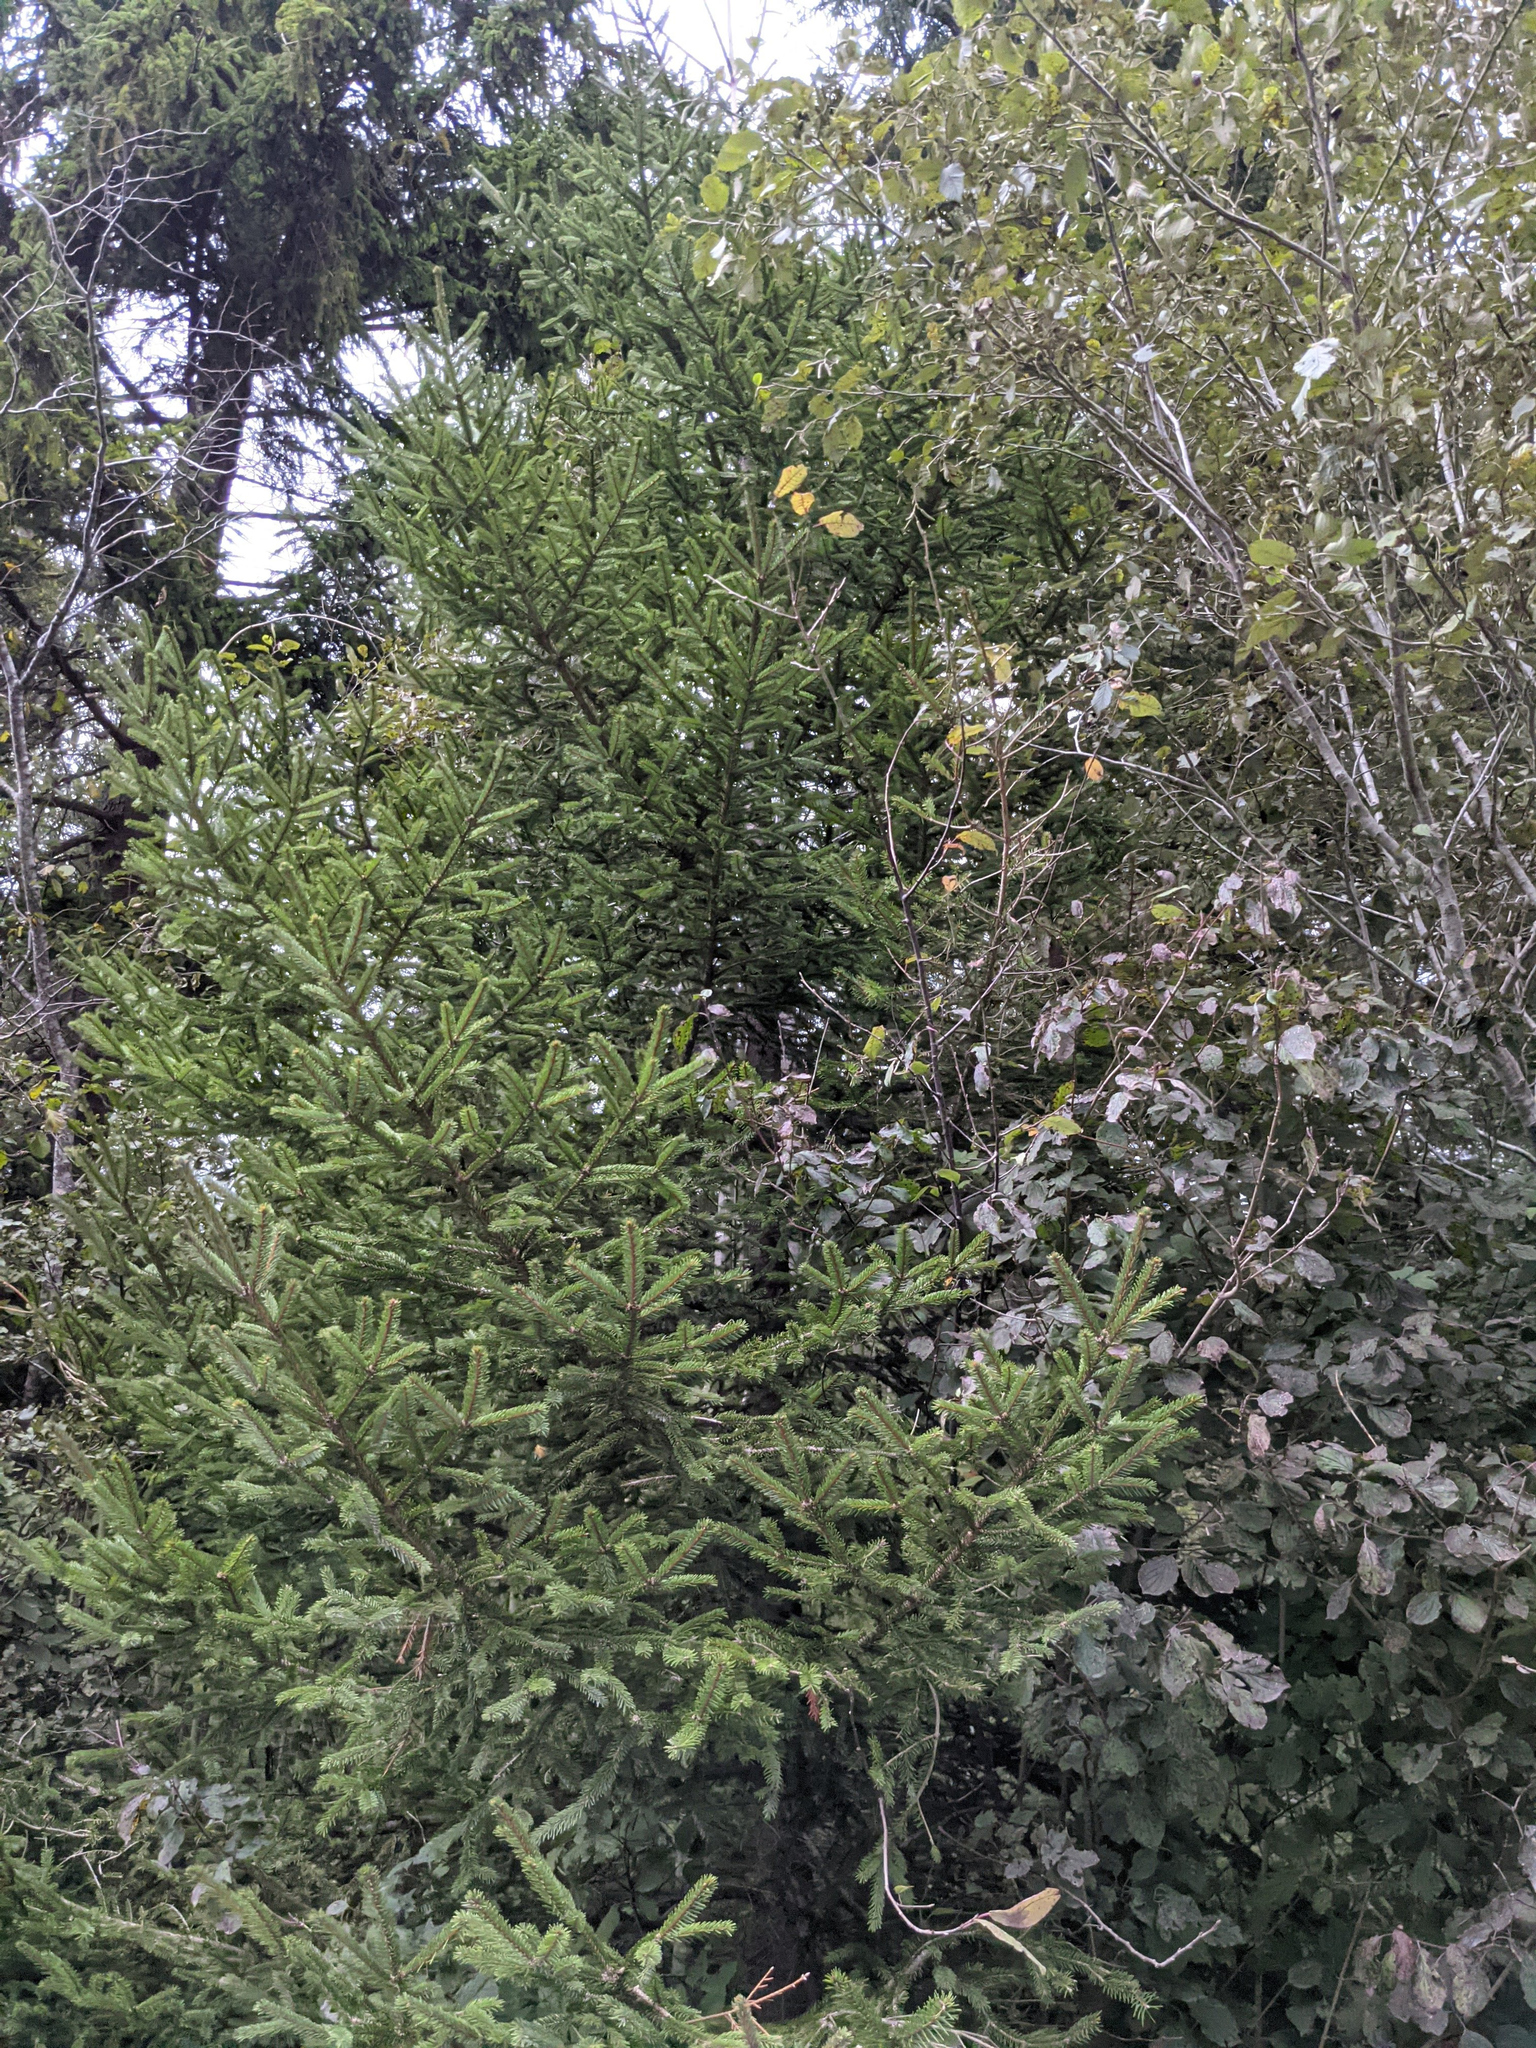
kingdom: Plantae
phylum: Tracheophyta
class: Pinopsida
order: Pinales
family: Pinaceae
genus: Picea
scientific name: Picea abies
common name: Norway spruce
